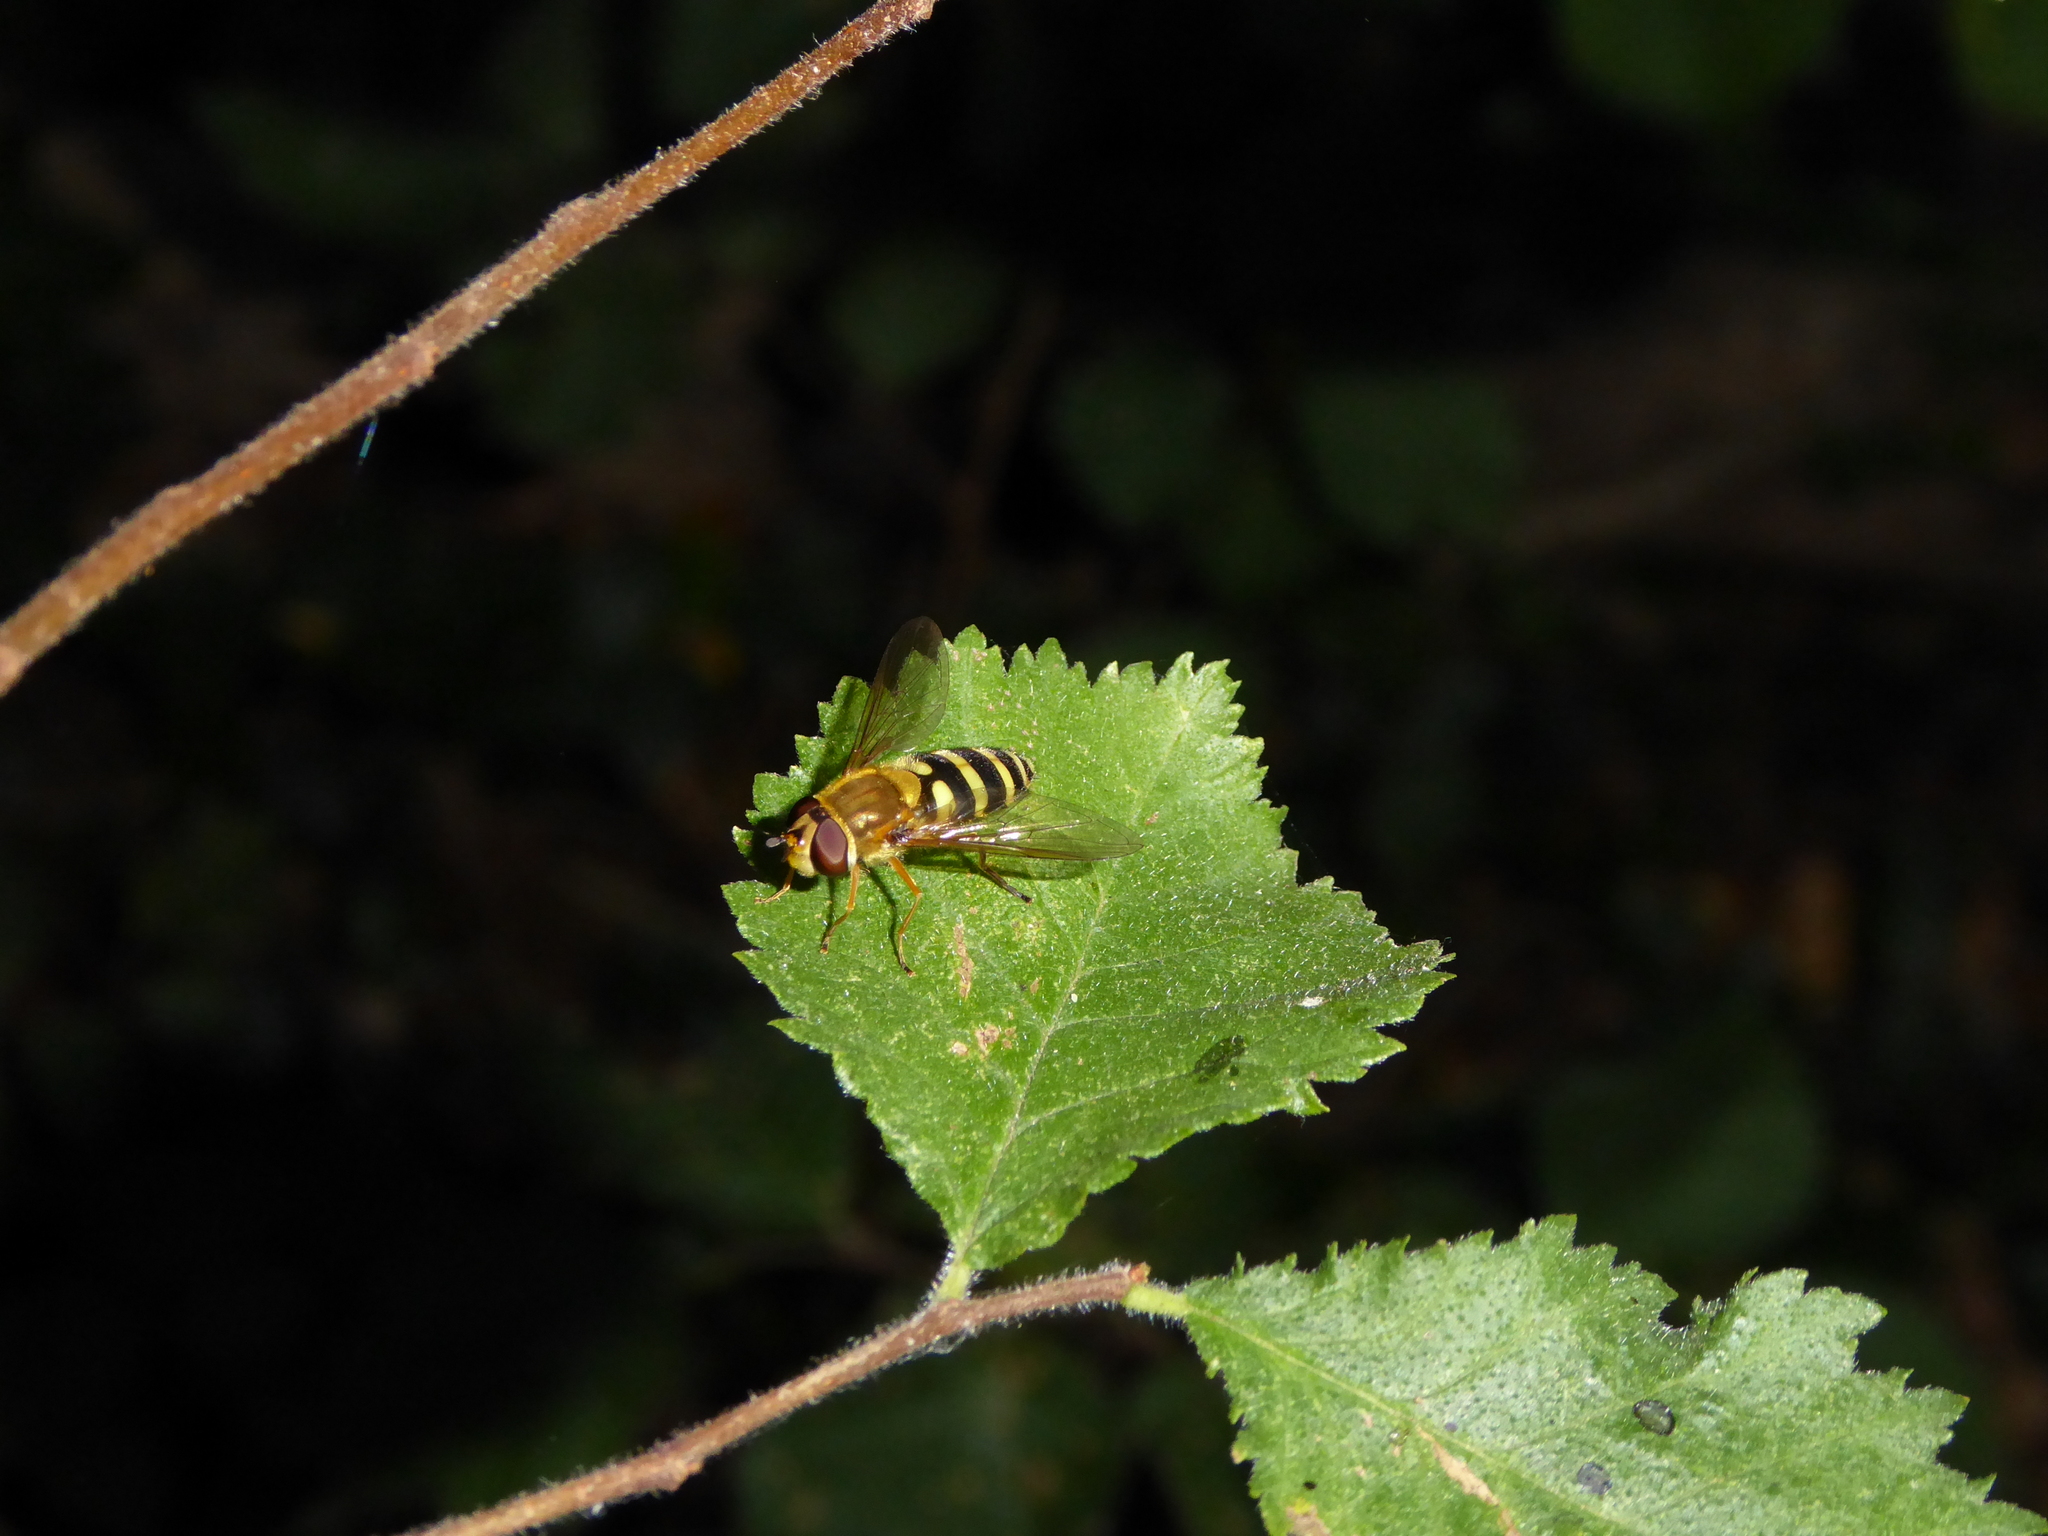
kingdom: Animalia
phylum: Arthropoda
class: Insecta
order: Diptera
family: Syrphidae
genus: Syrphus
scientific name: Syrphus
